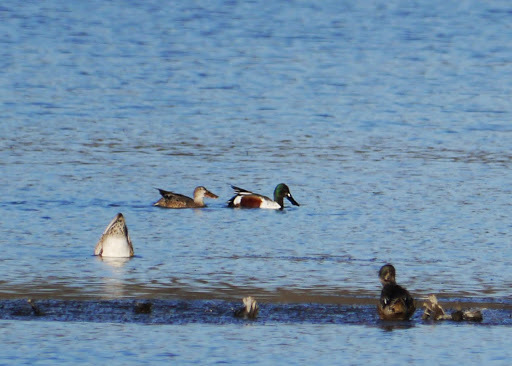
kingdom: Animalia
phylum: Chordata
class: Aves
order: Anseriformes
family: Anatidae
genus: Spatula
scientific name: Spatula clypeata
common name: Northern shoveler
